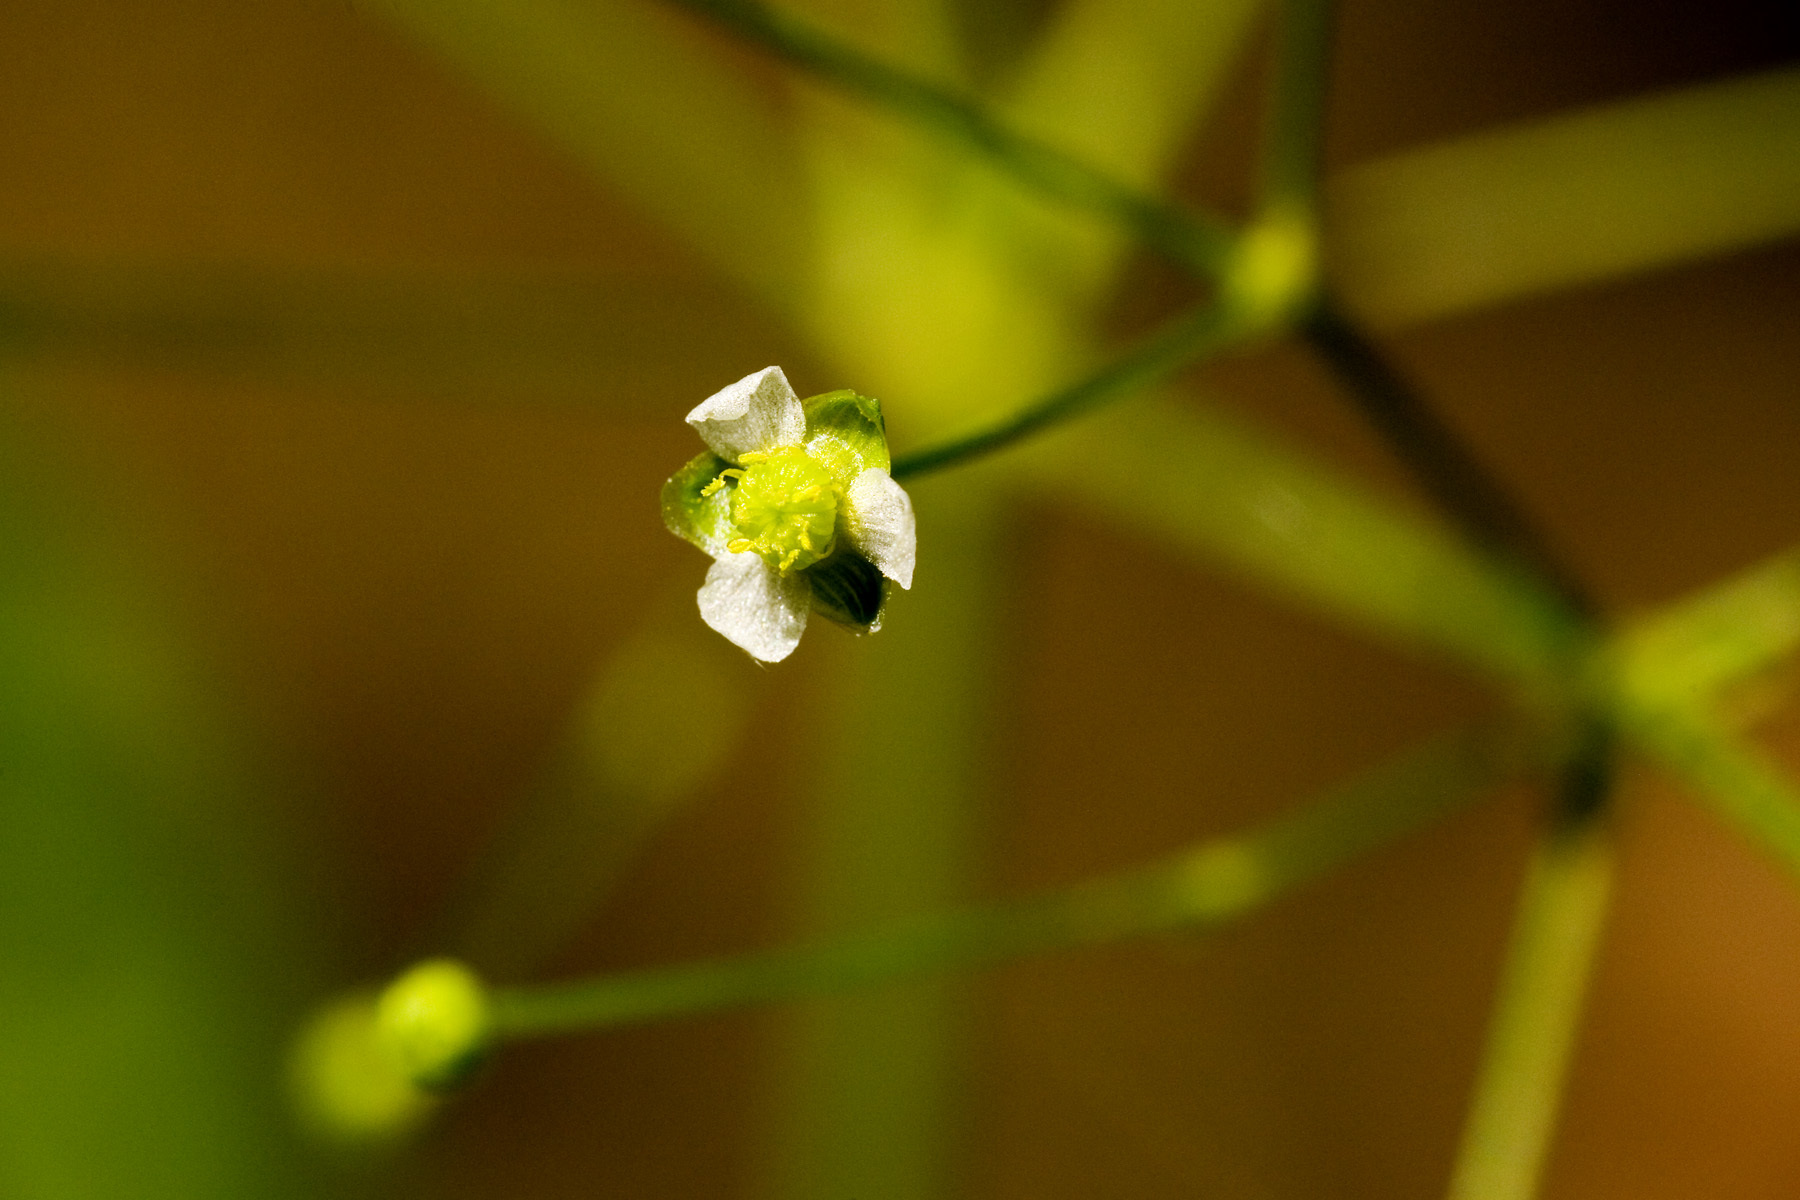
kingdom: Plantae
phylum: Tracheophyta
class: Liliopsida
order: Alismatales
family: Alismataceae
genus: Alisma
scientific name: Alisma subcordatum
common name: Southern water-plantain
